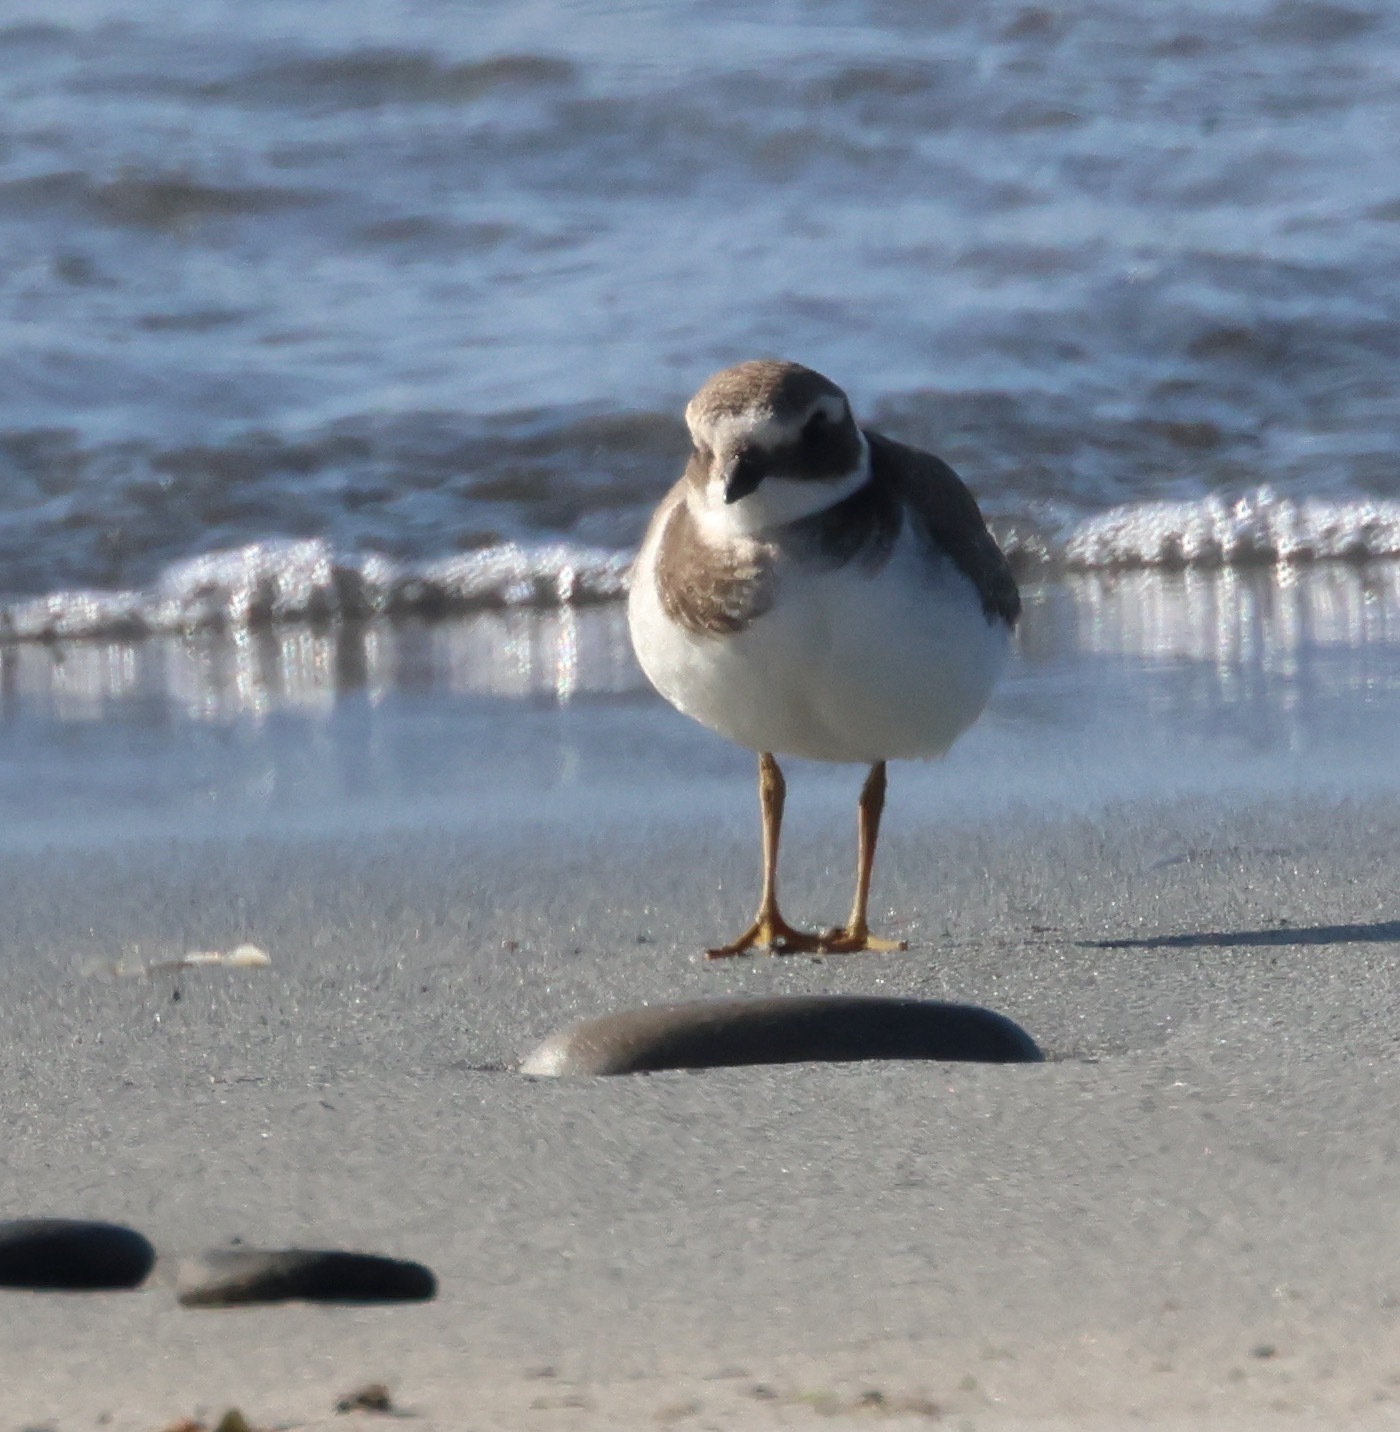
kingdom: Animalia
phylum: Chordata
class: Aves
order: Charadriiformes
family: Charadriidae
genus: Charadrius
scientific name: Charadrius hiaticula
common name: Common ringed plover
